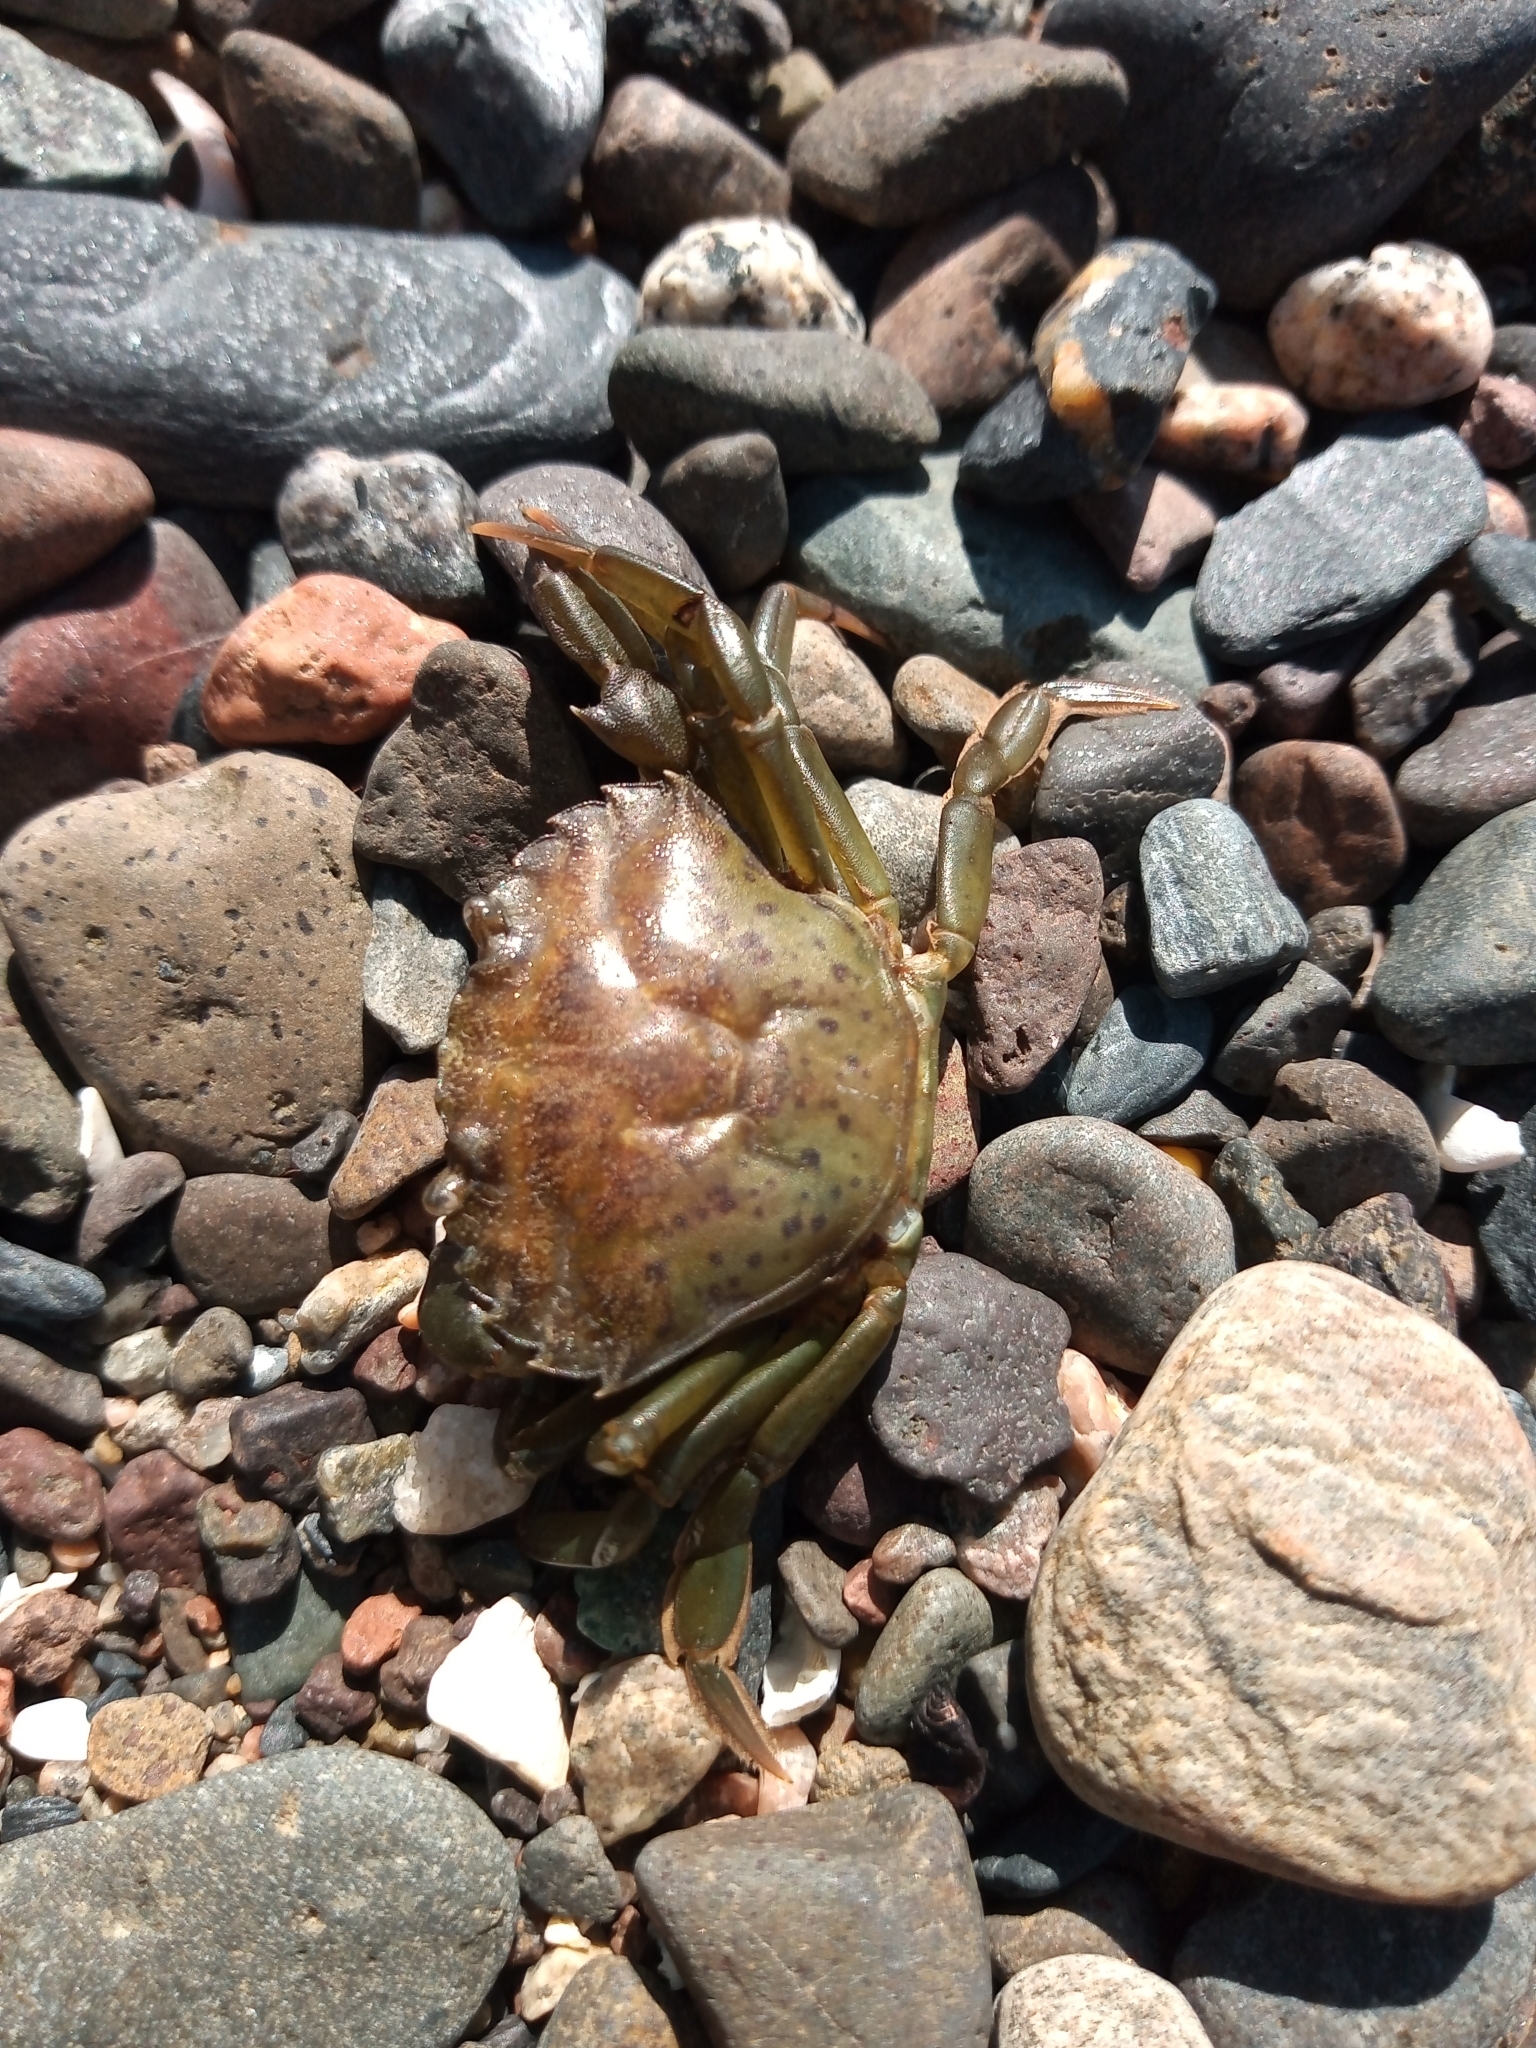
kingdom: Animalia
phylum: Arthropoda
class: Malacostraca
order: Decapoda
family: Carcinidae
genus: Carcinus
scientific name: Carcinus maenas
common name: European green crab
